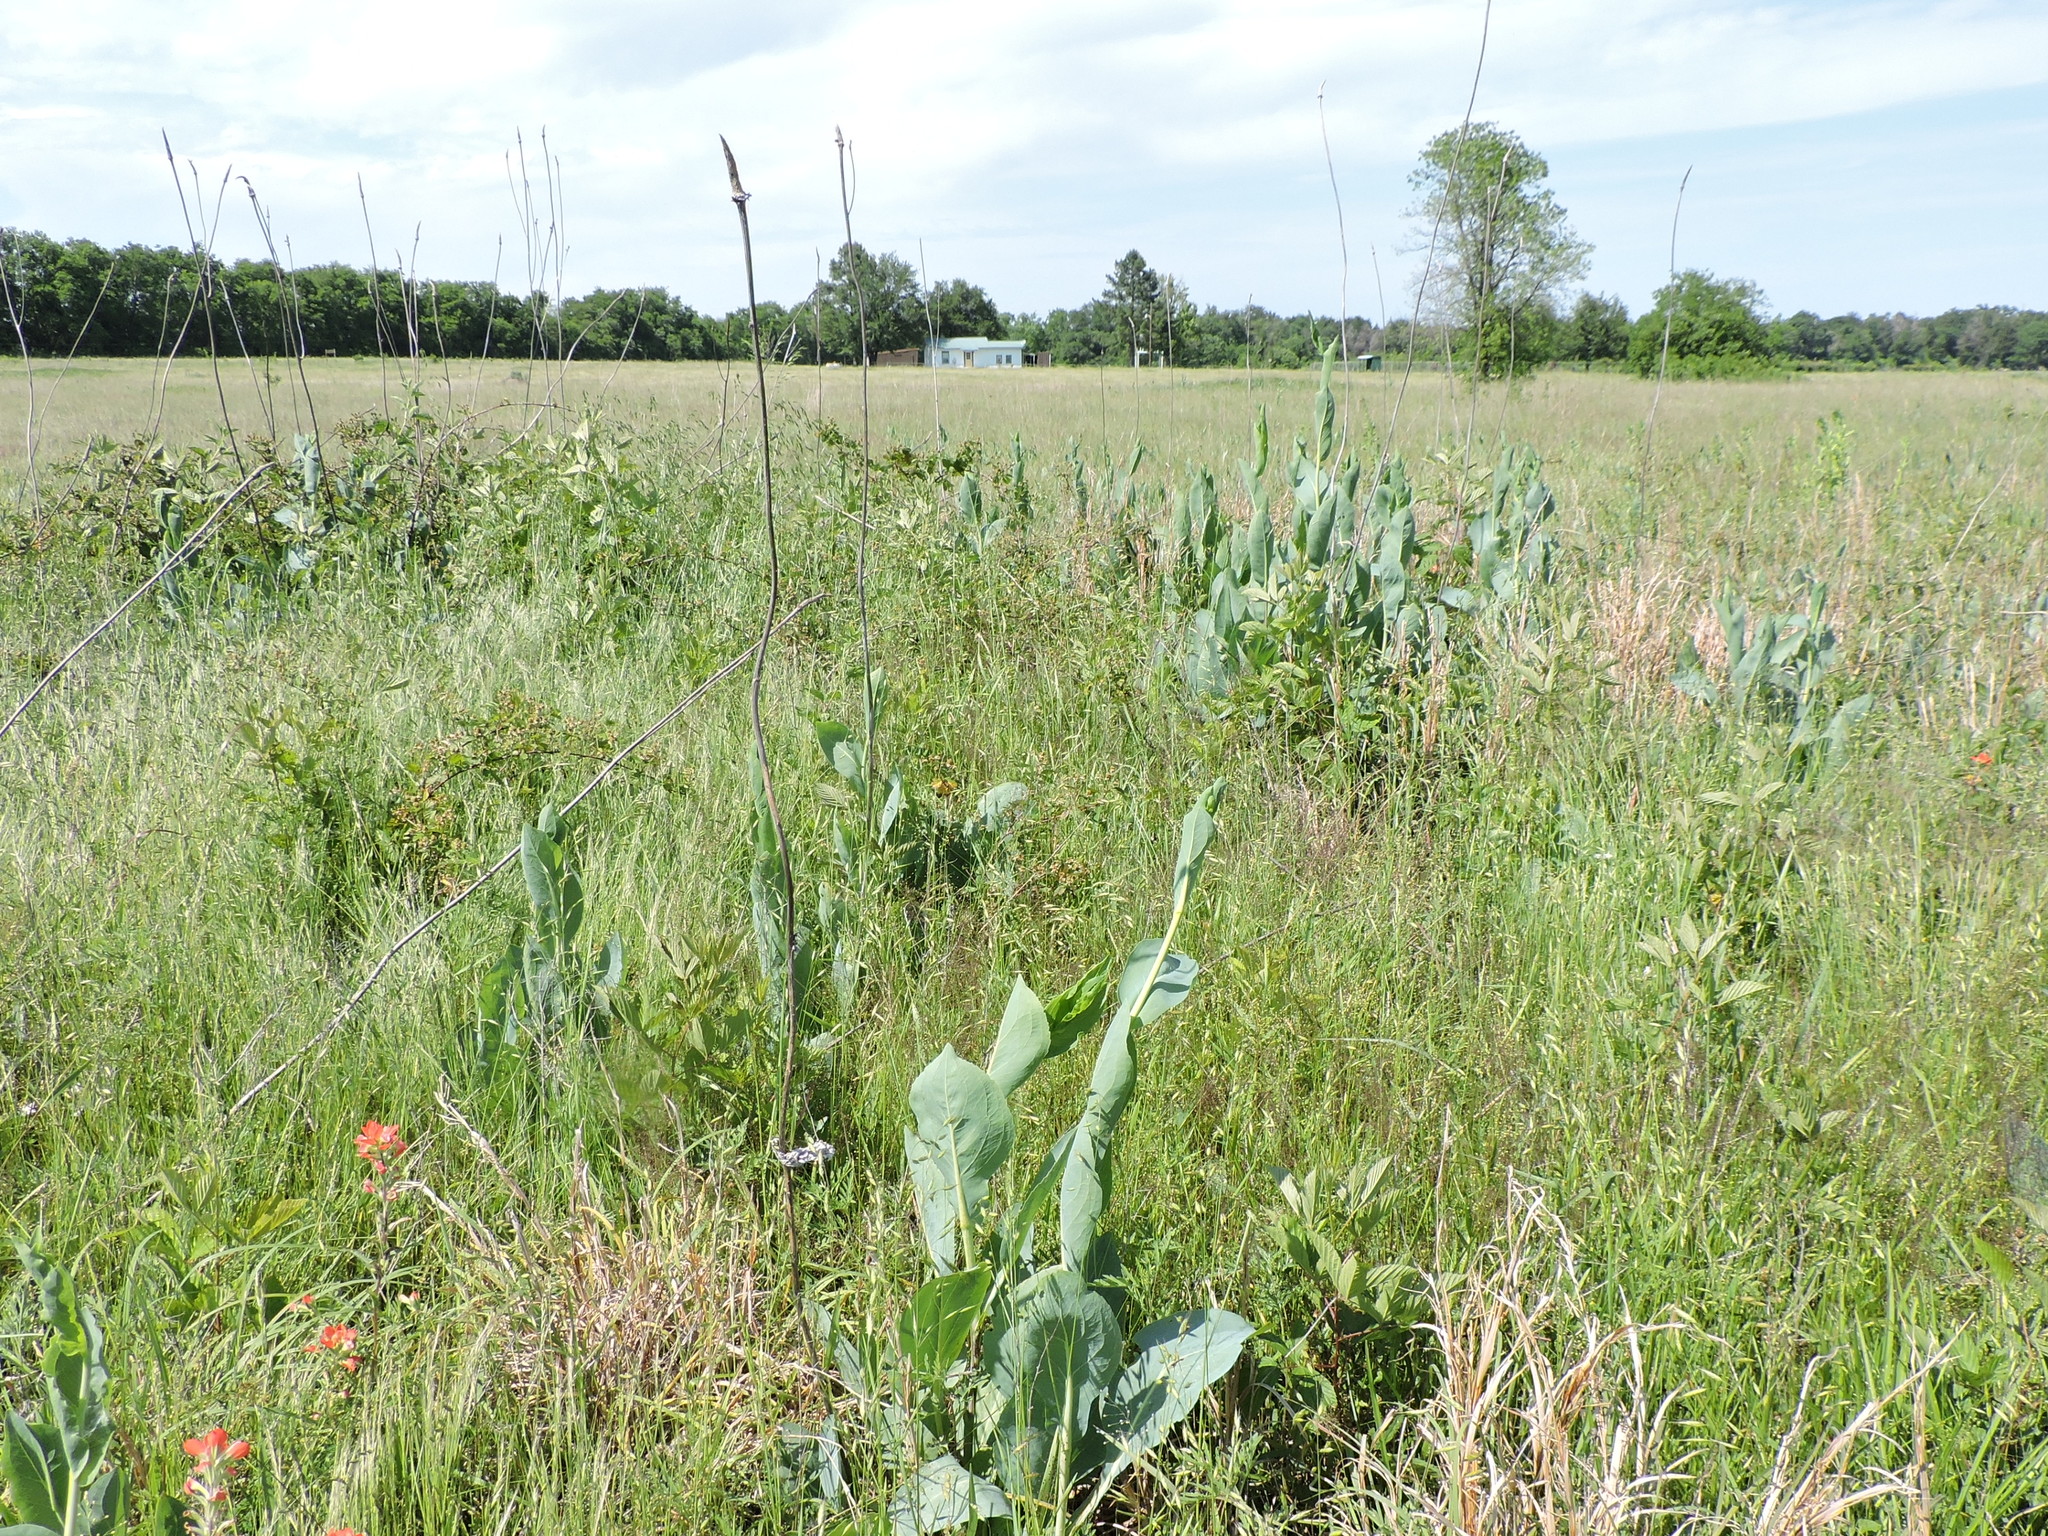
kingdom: Plantae
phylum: Tracheophyta
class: Magnoliopsida
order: Asterales
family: Asteraceae
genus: Rudbeckia
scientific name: Rudbeckia maxima
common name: Cabbage coneflower
